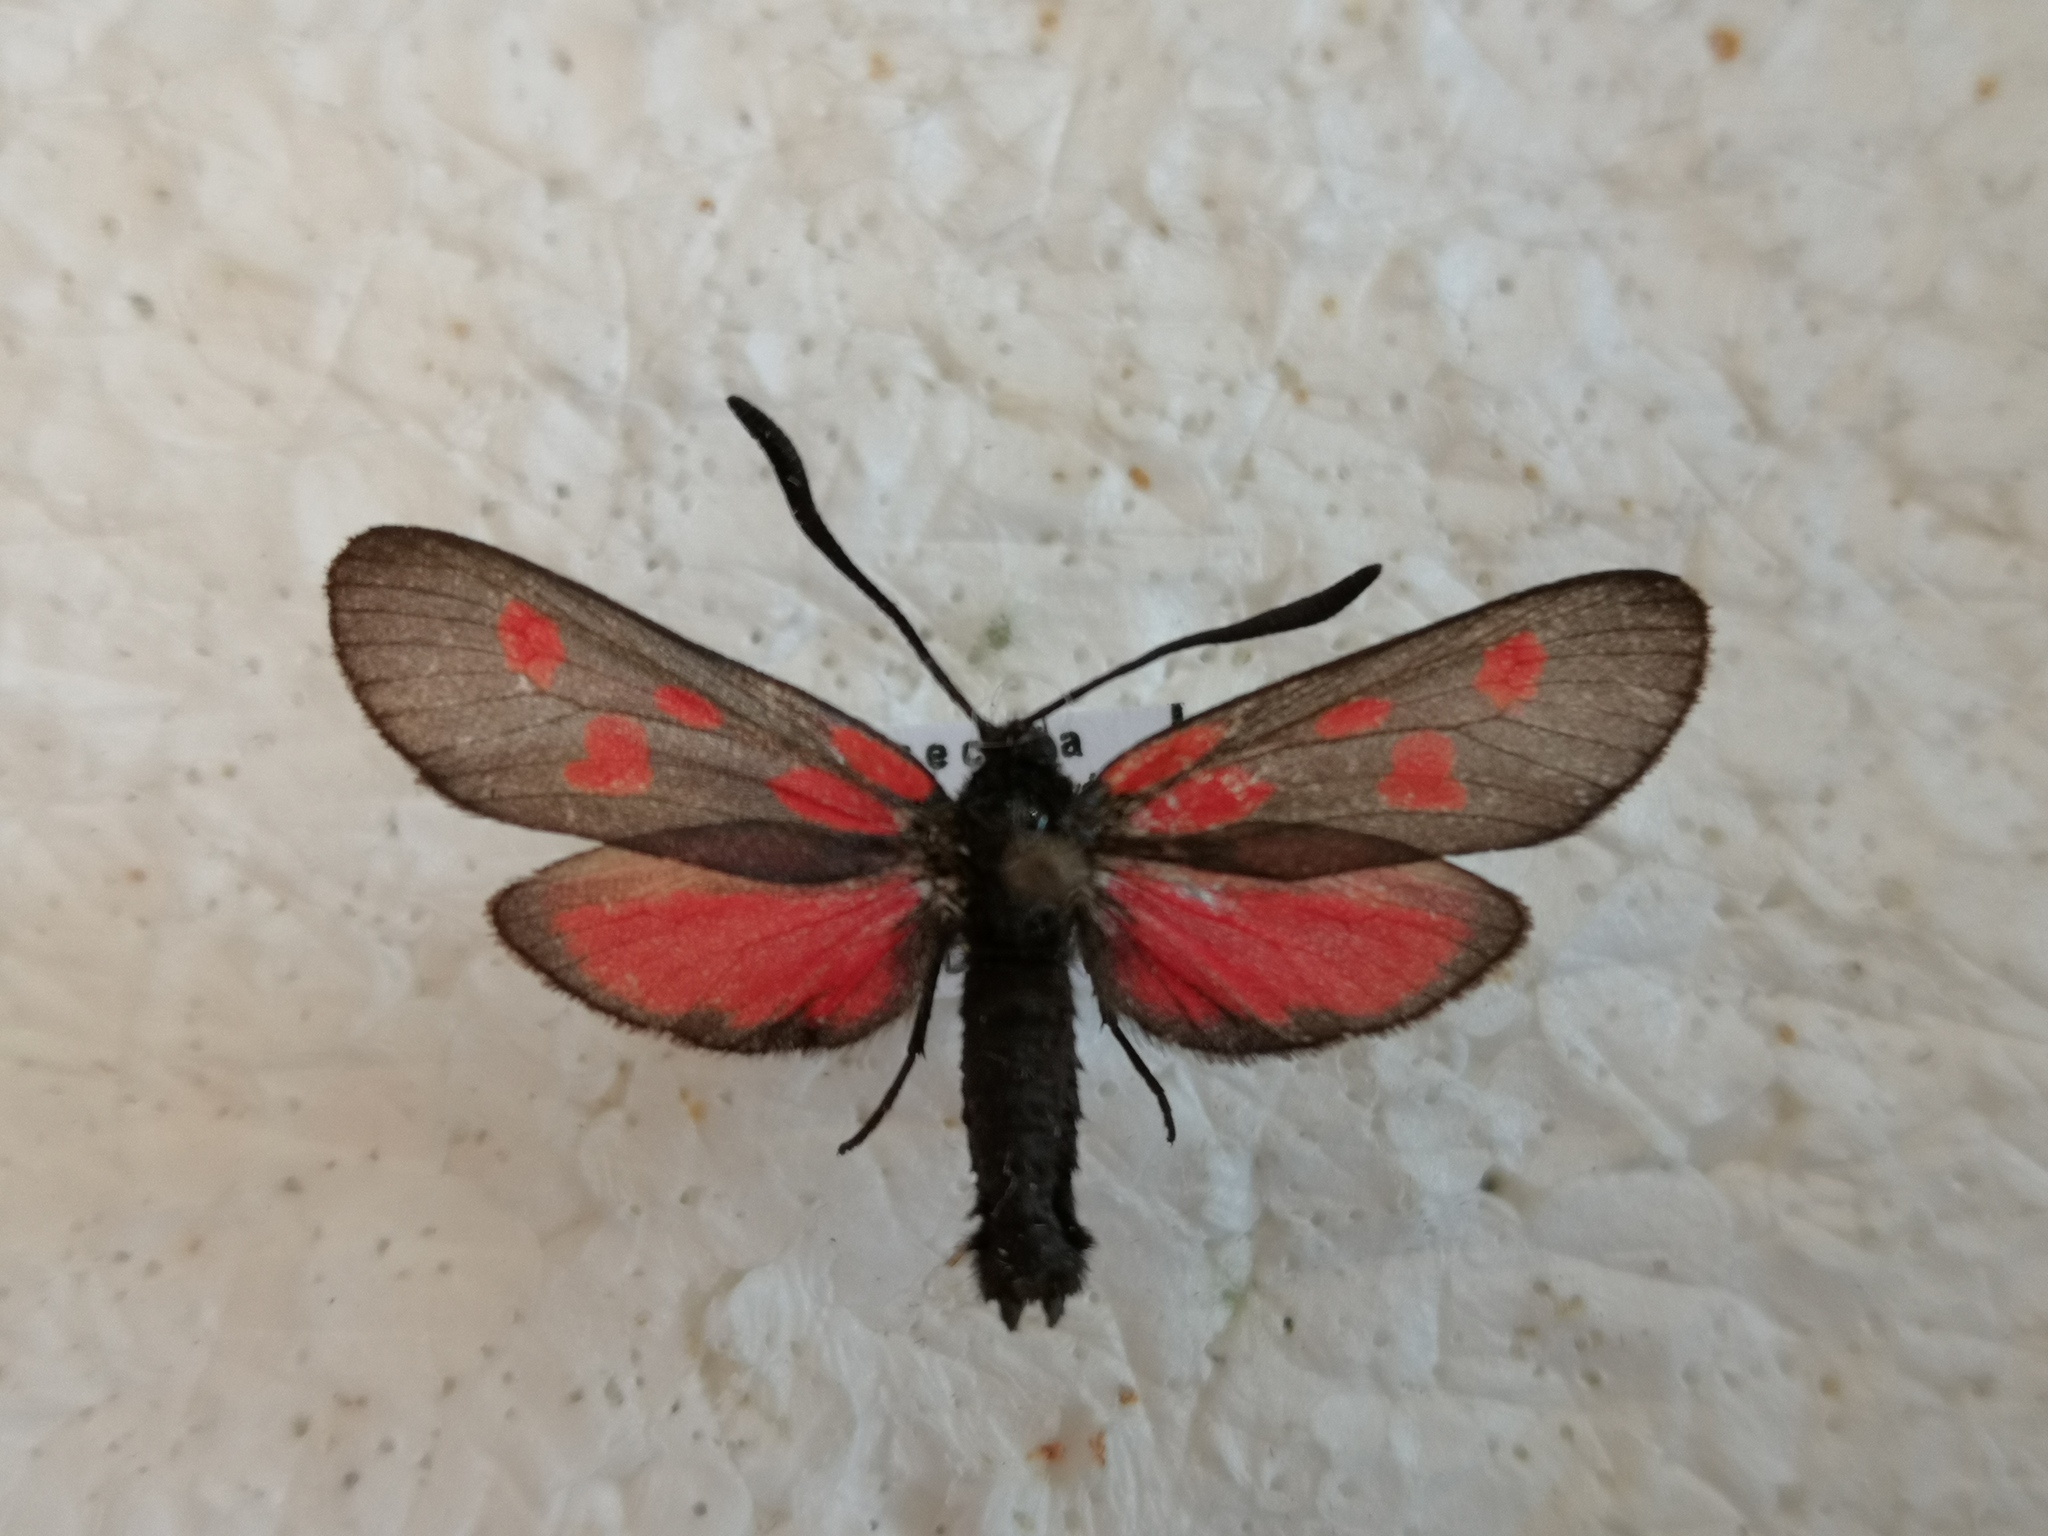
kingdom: Animalia
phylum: Arthropoda
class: Insecta
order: Lepidoptera
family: Zygaenidae
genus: Zygaena
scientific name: Zygaena viciae
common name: New forest burnet
